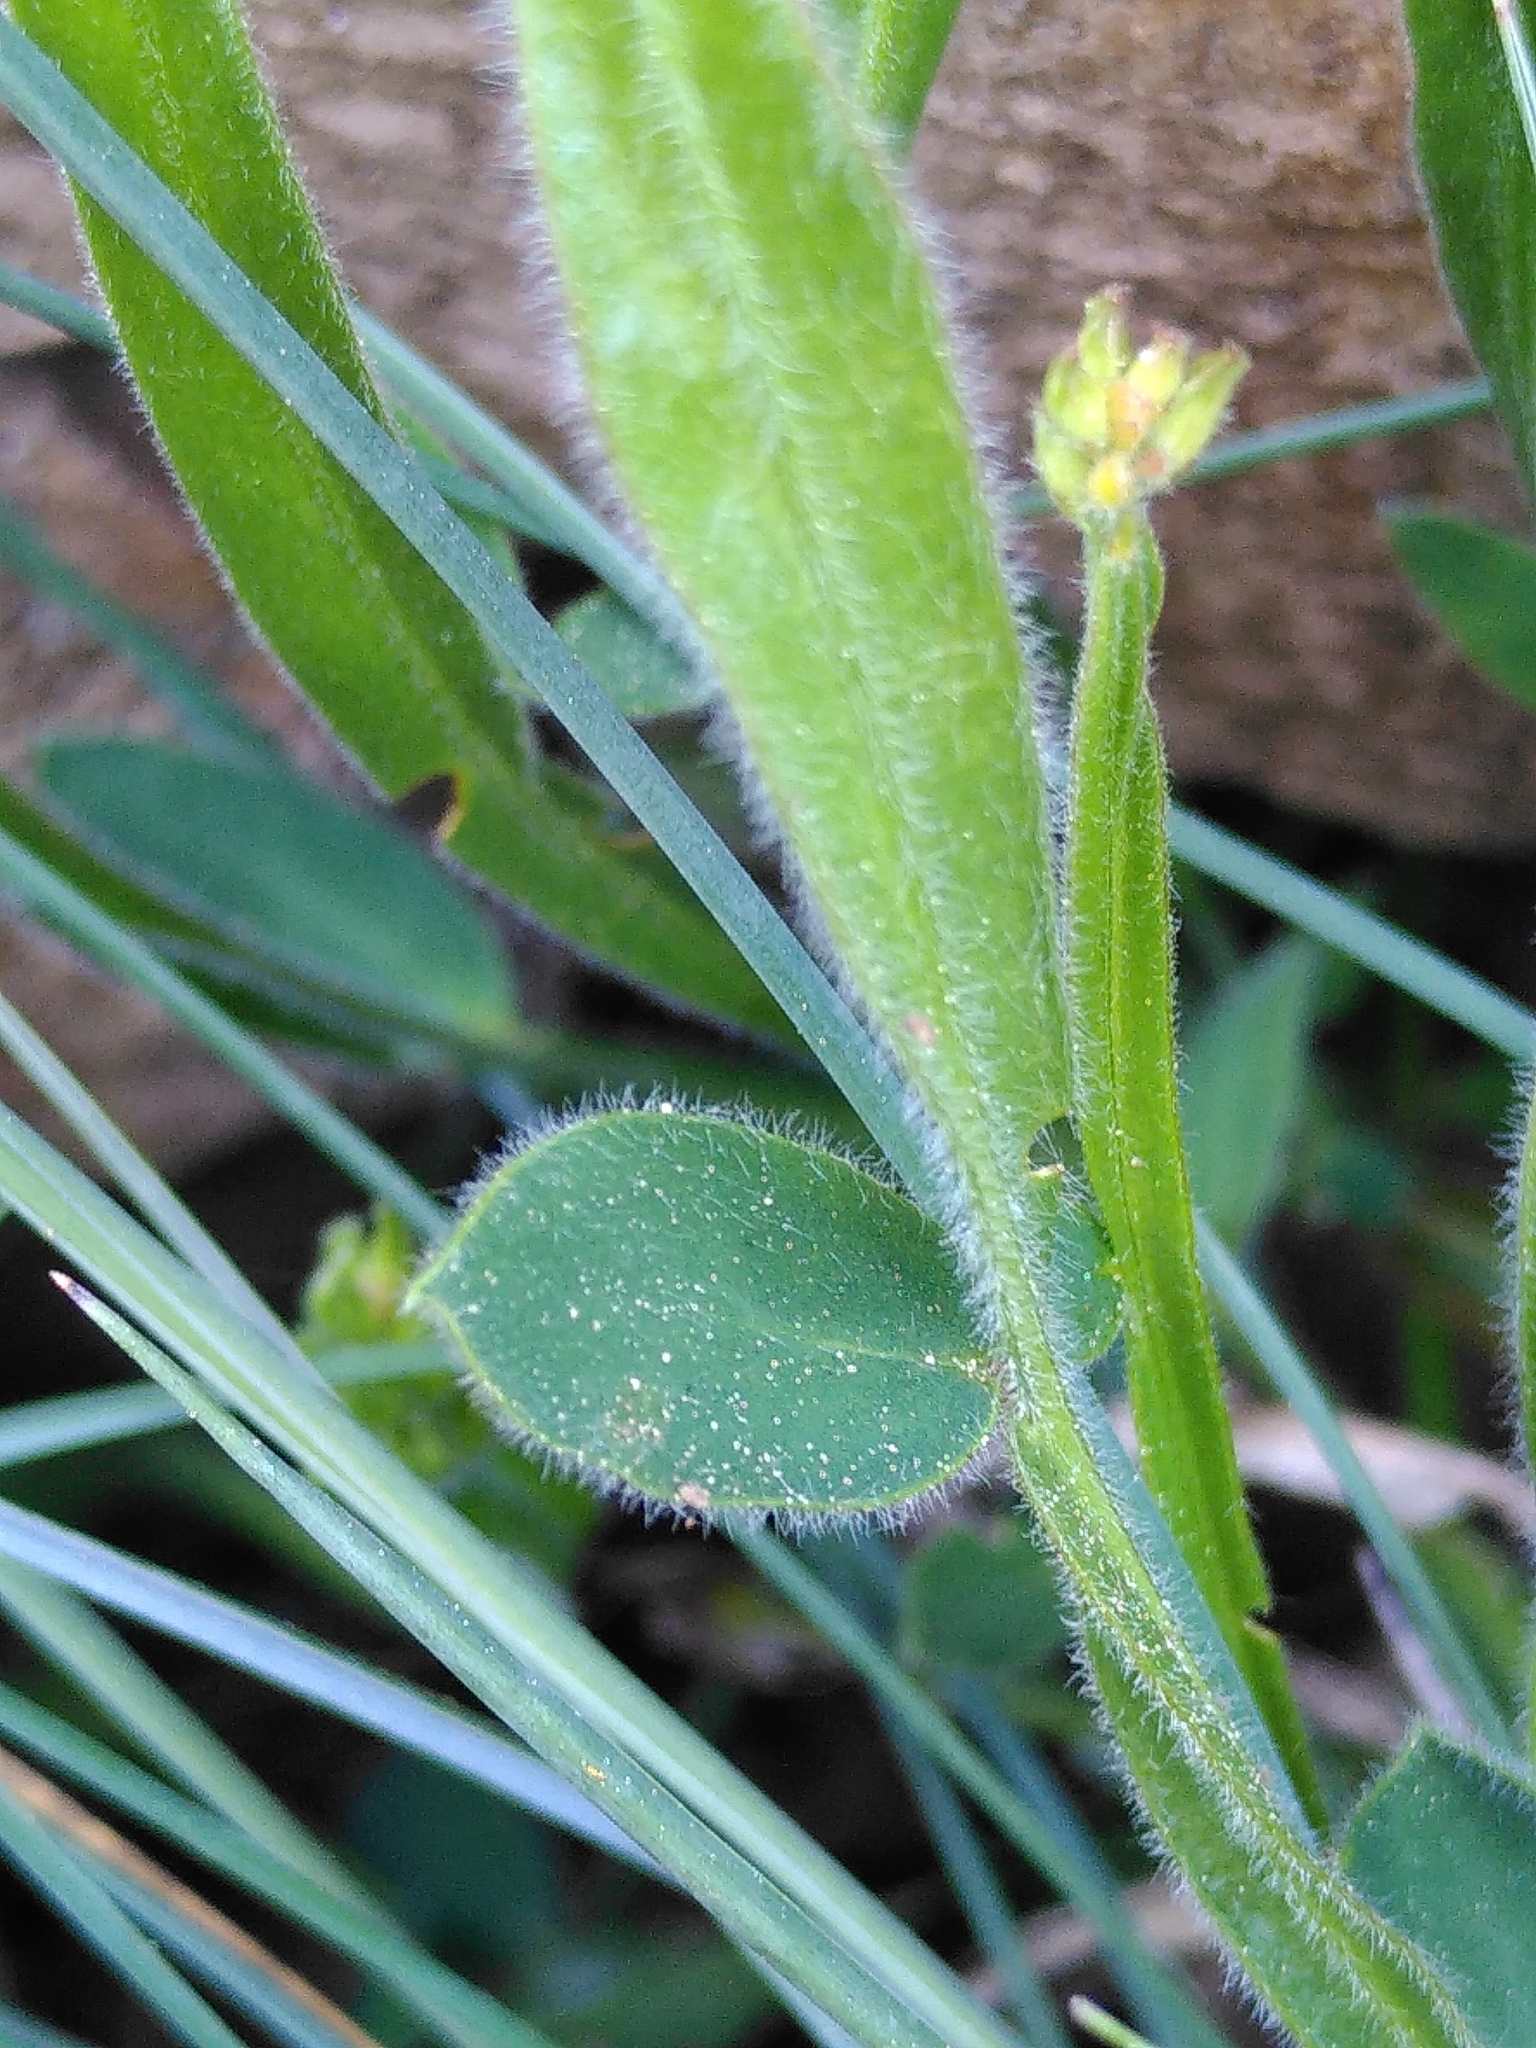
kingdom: Plantae
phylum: Tracheophyta
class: Magnoliopsida
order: Fabales
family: Fabaceae
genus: Genista
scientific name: Genista sagittalis
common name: Winged greenweed
